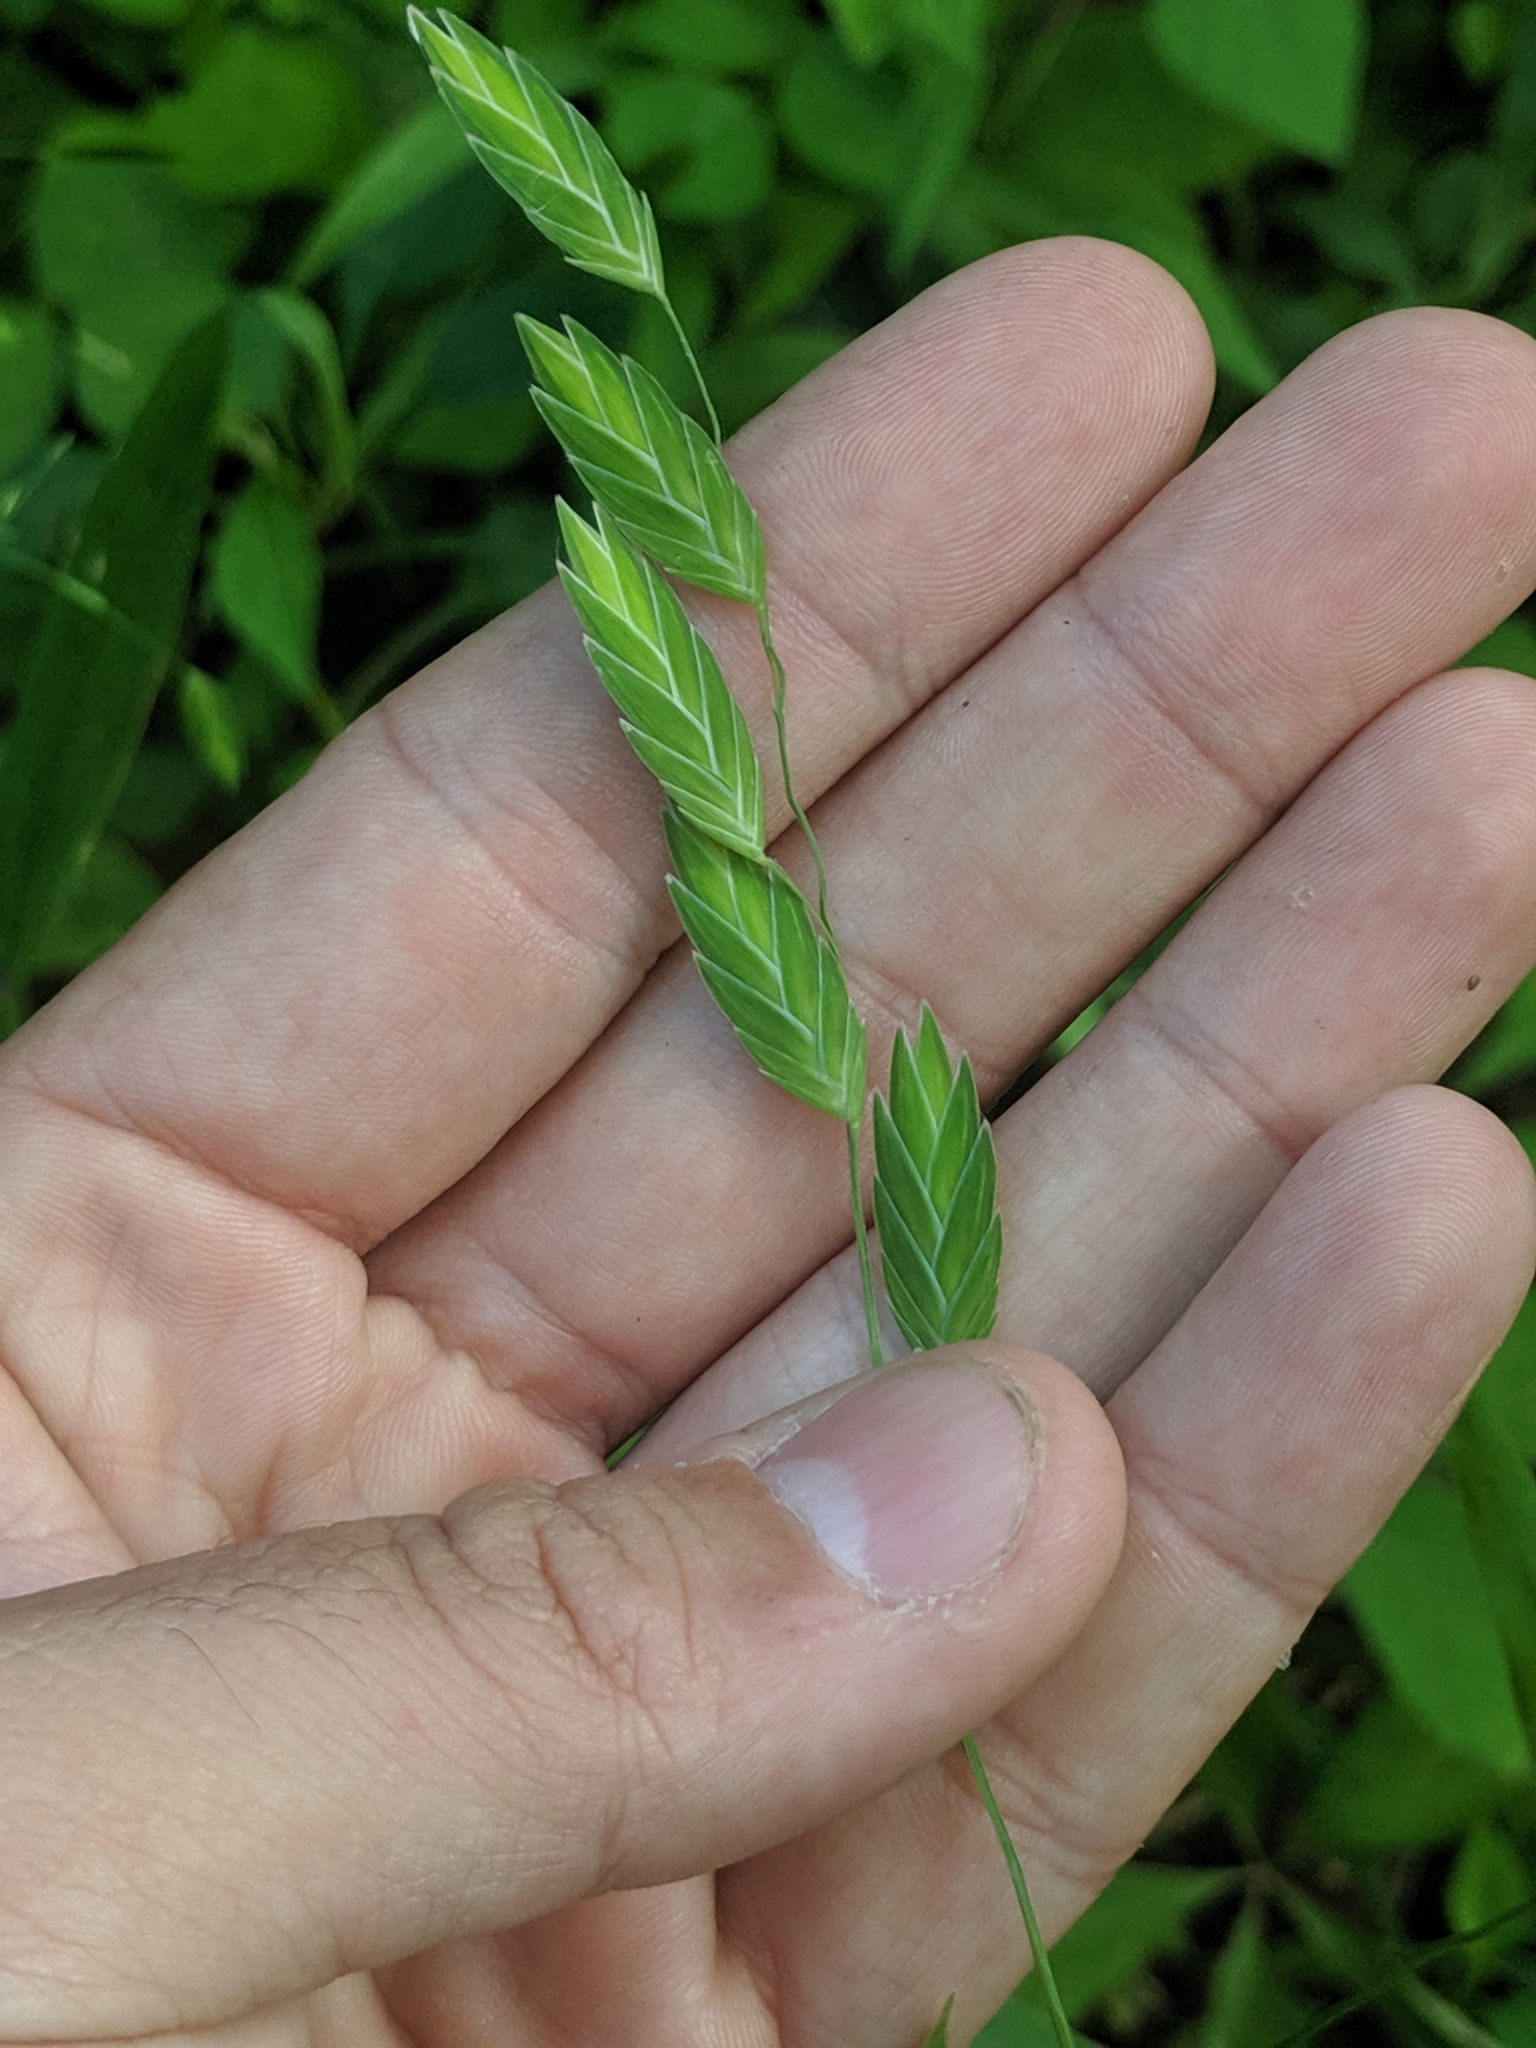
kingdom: Plantae
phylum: Tracheophyta
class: Liliopsida
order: Poales
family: Poaceae
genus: Chasmanthium
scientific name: Chasmanthium latifolium
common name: Broad-leaved chasmanthium
